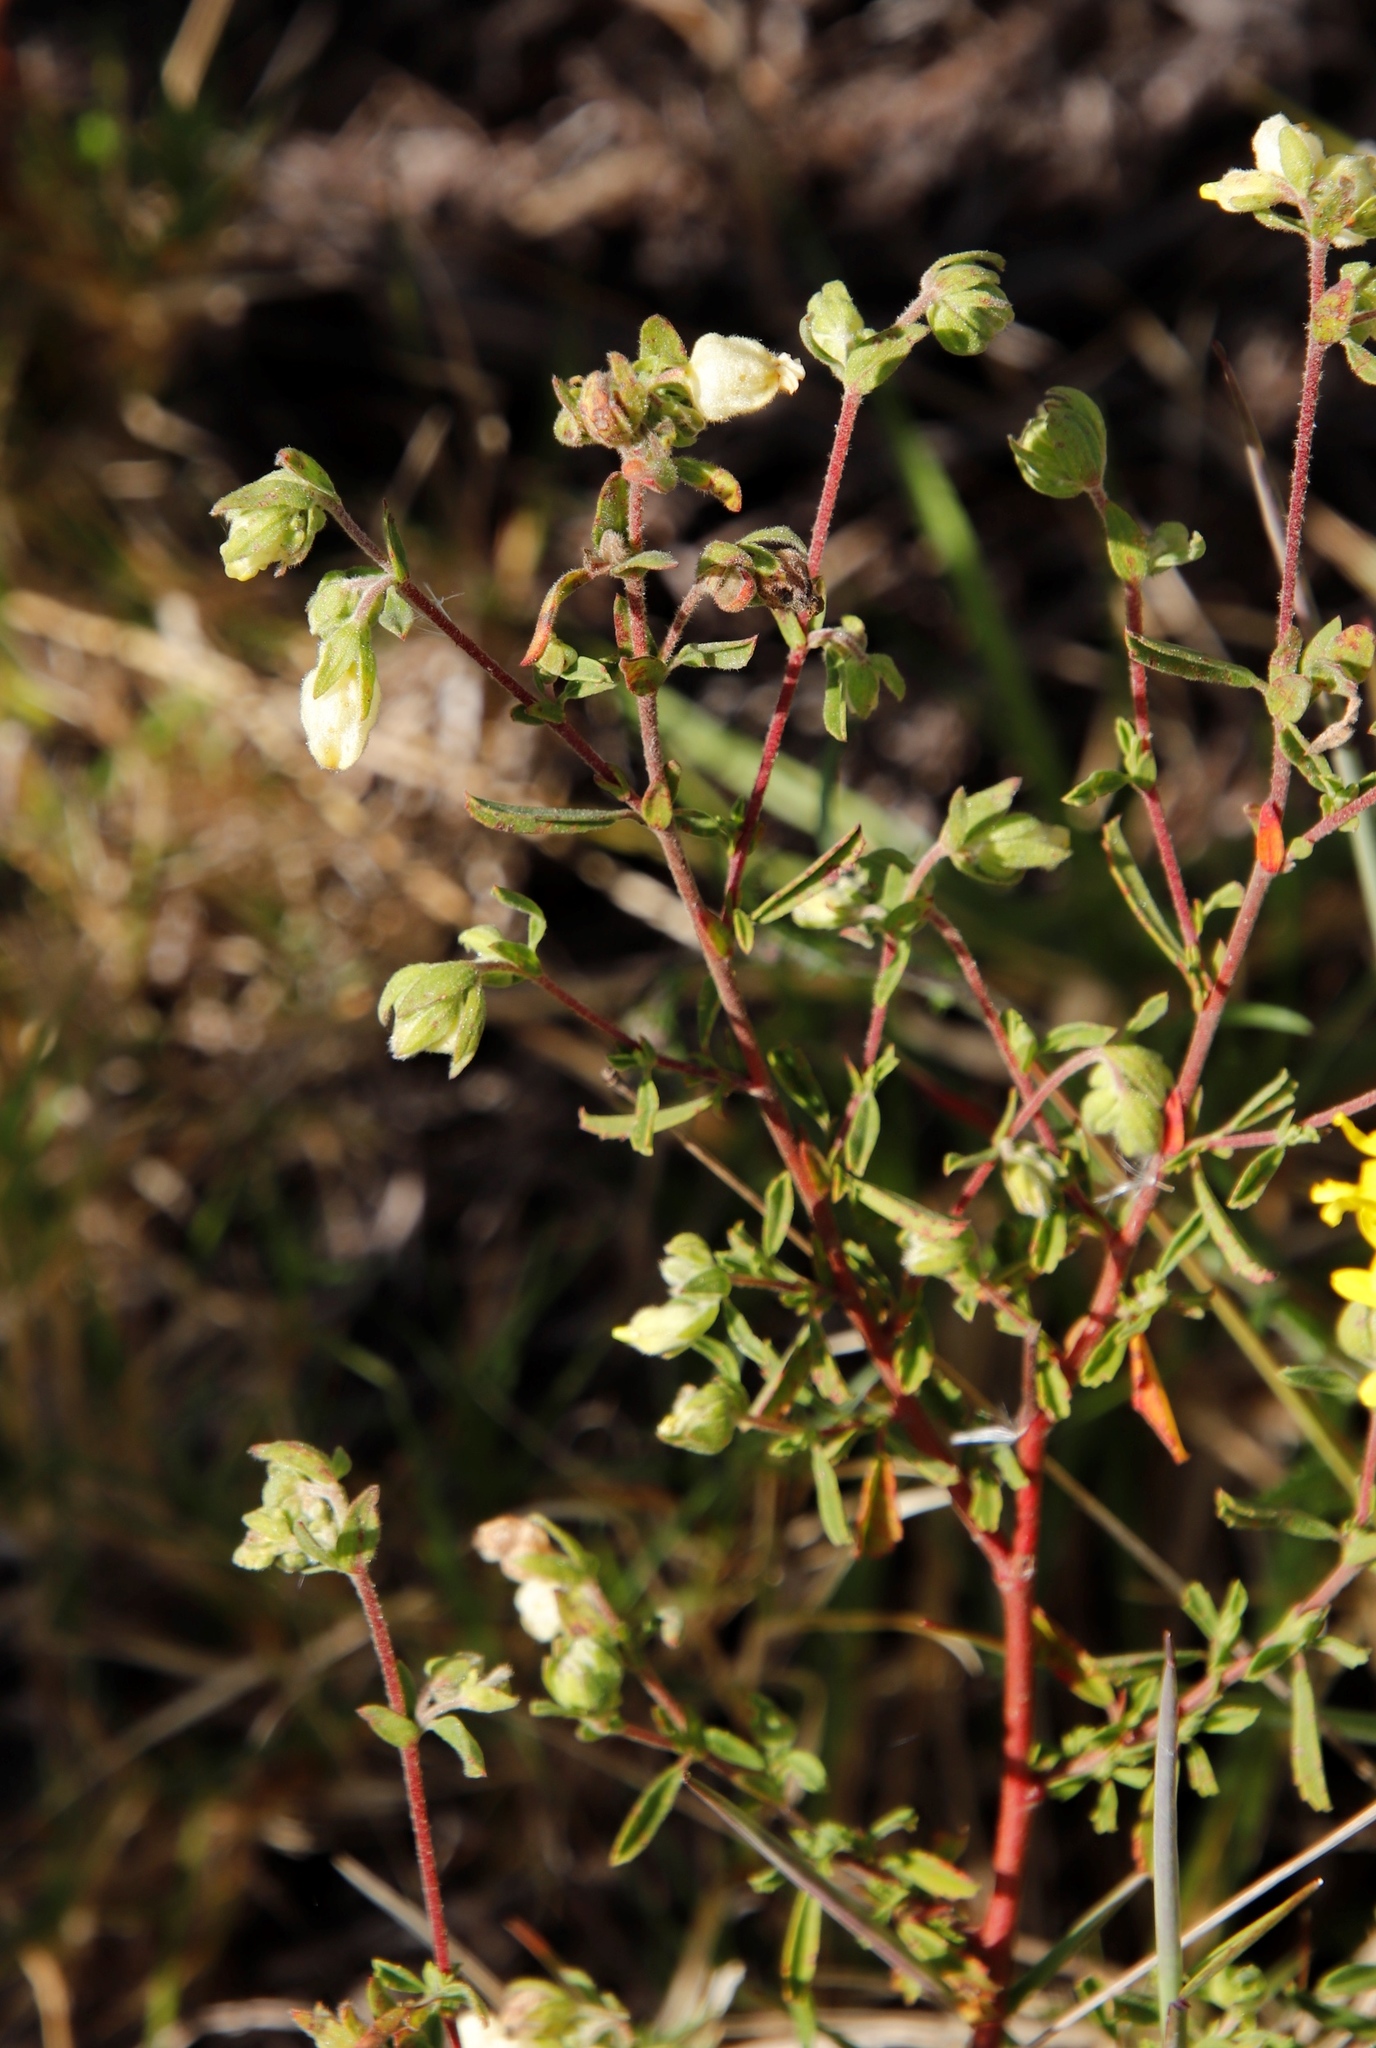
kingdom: Plantae
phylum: Tracheophyta
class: Magnoliopsida
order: Malvales
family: Malvaceae
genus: Hermannia
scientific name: Hermannia hyssopifolia
